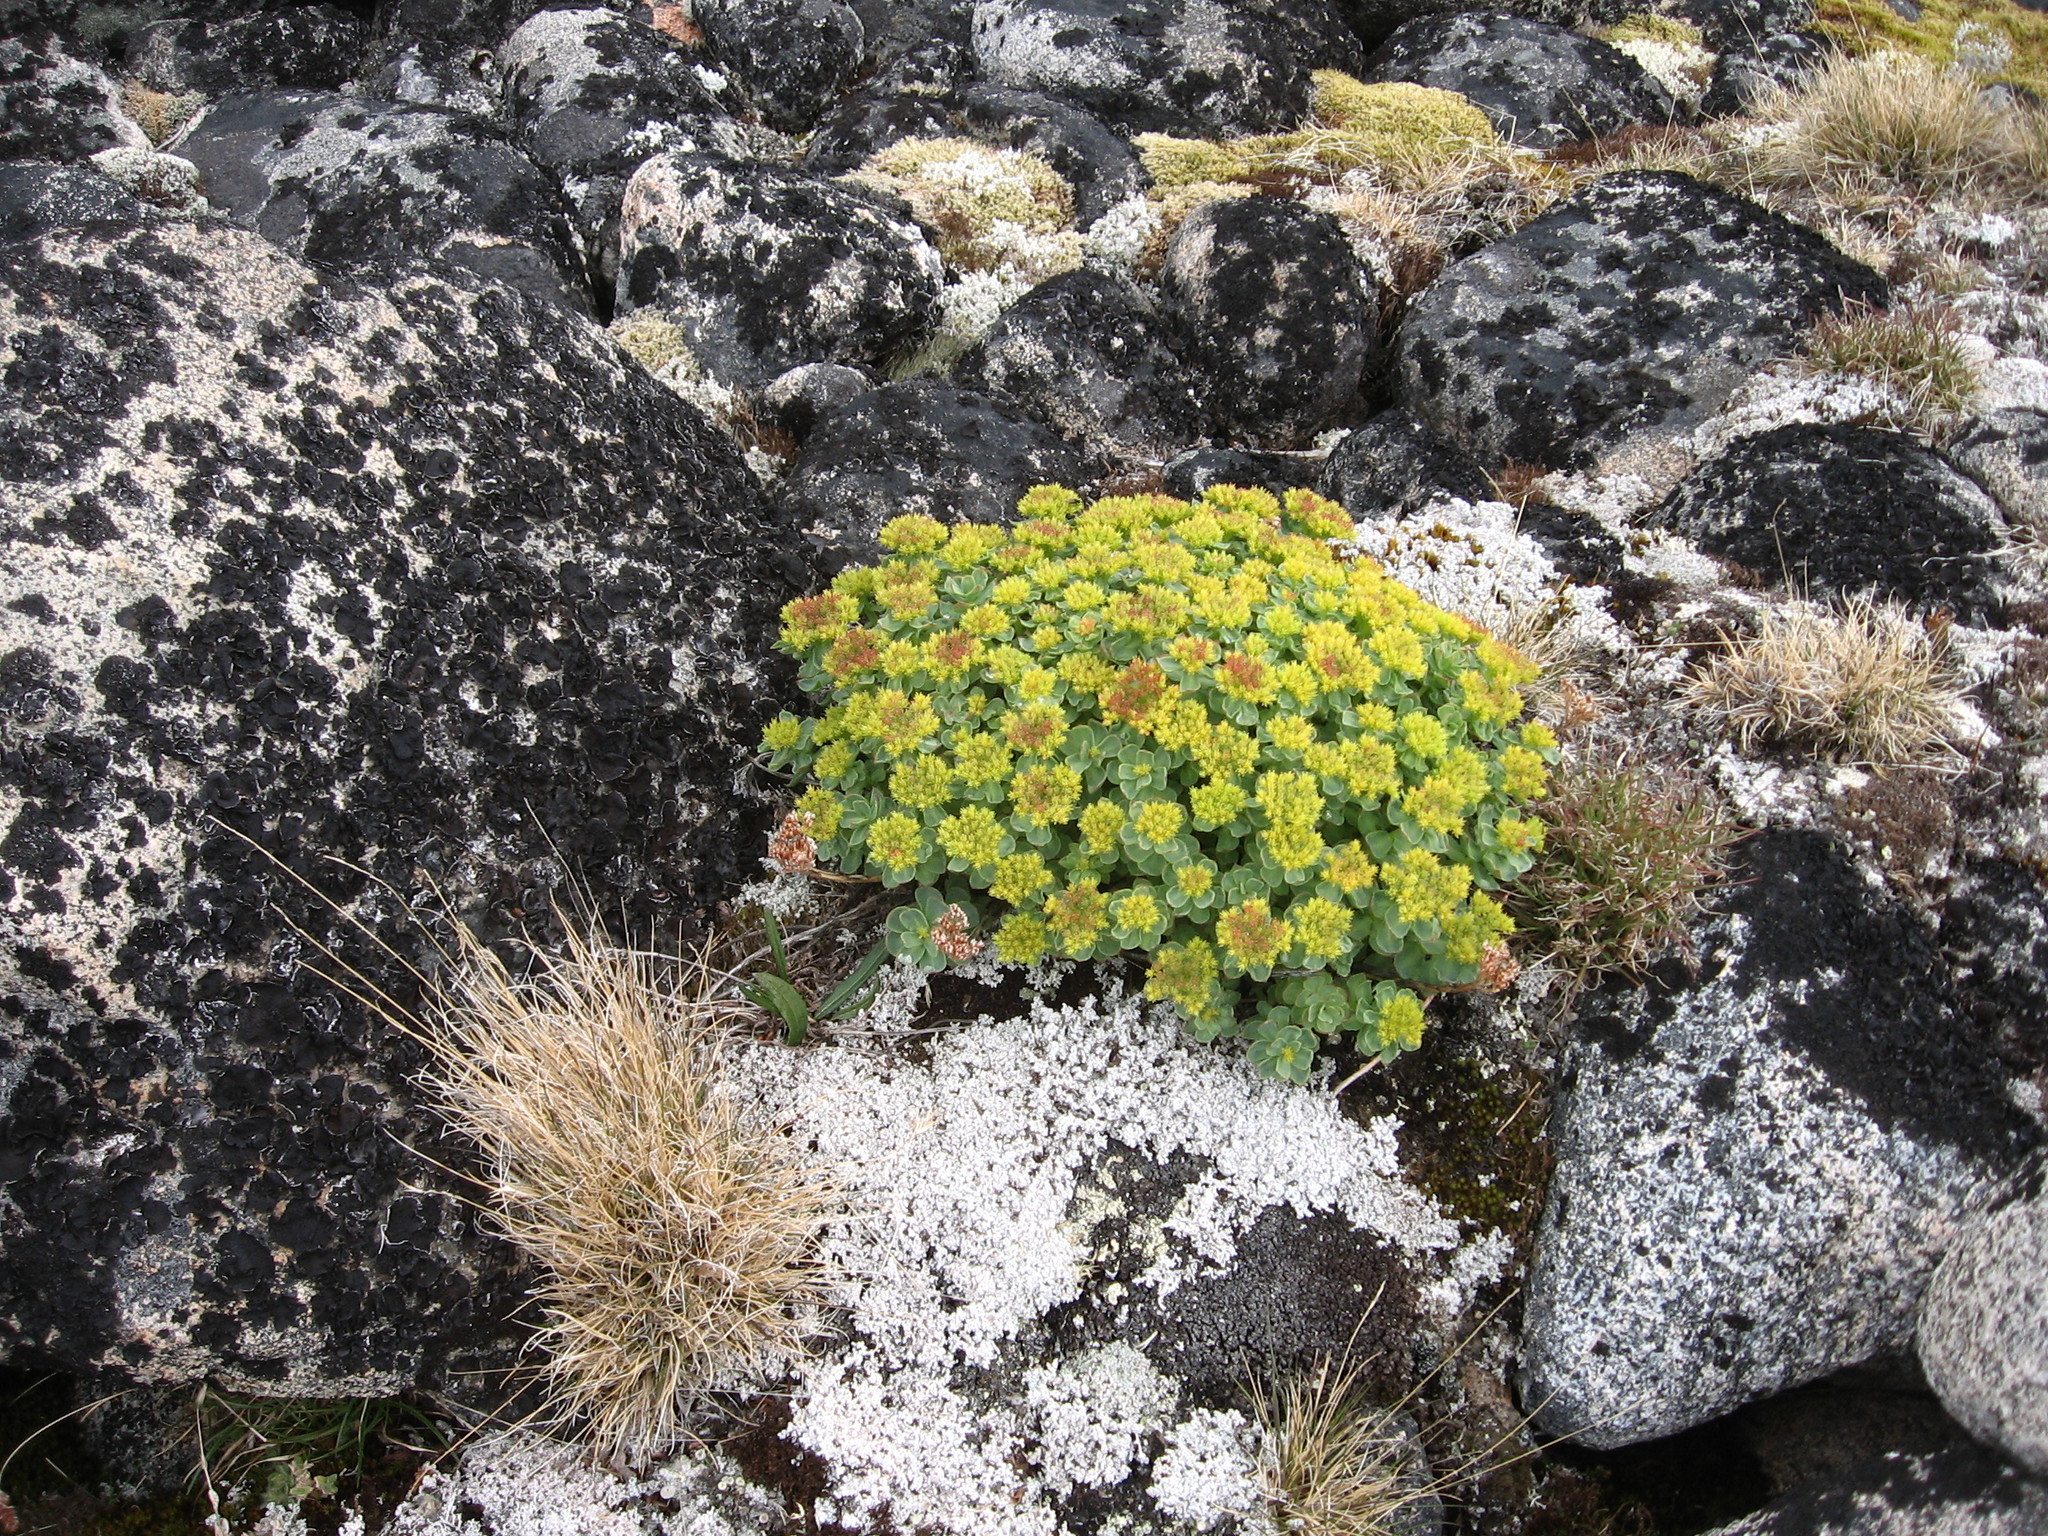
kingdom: Plantae
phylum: Tracheophyta
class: Magnoliopsida
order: Saxifragales
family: Crassulaceae
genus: Rhodiola
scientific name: Rhodiola rosea
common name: Roseroot
